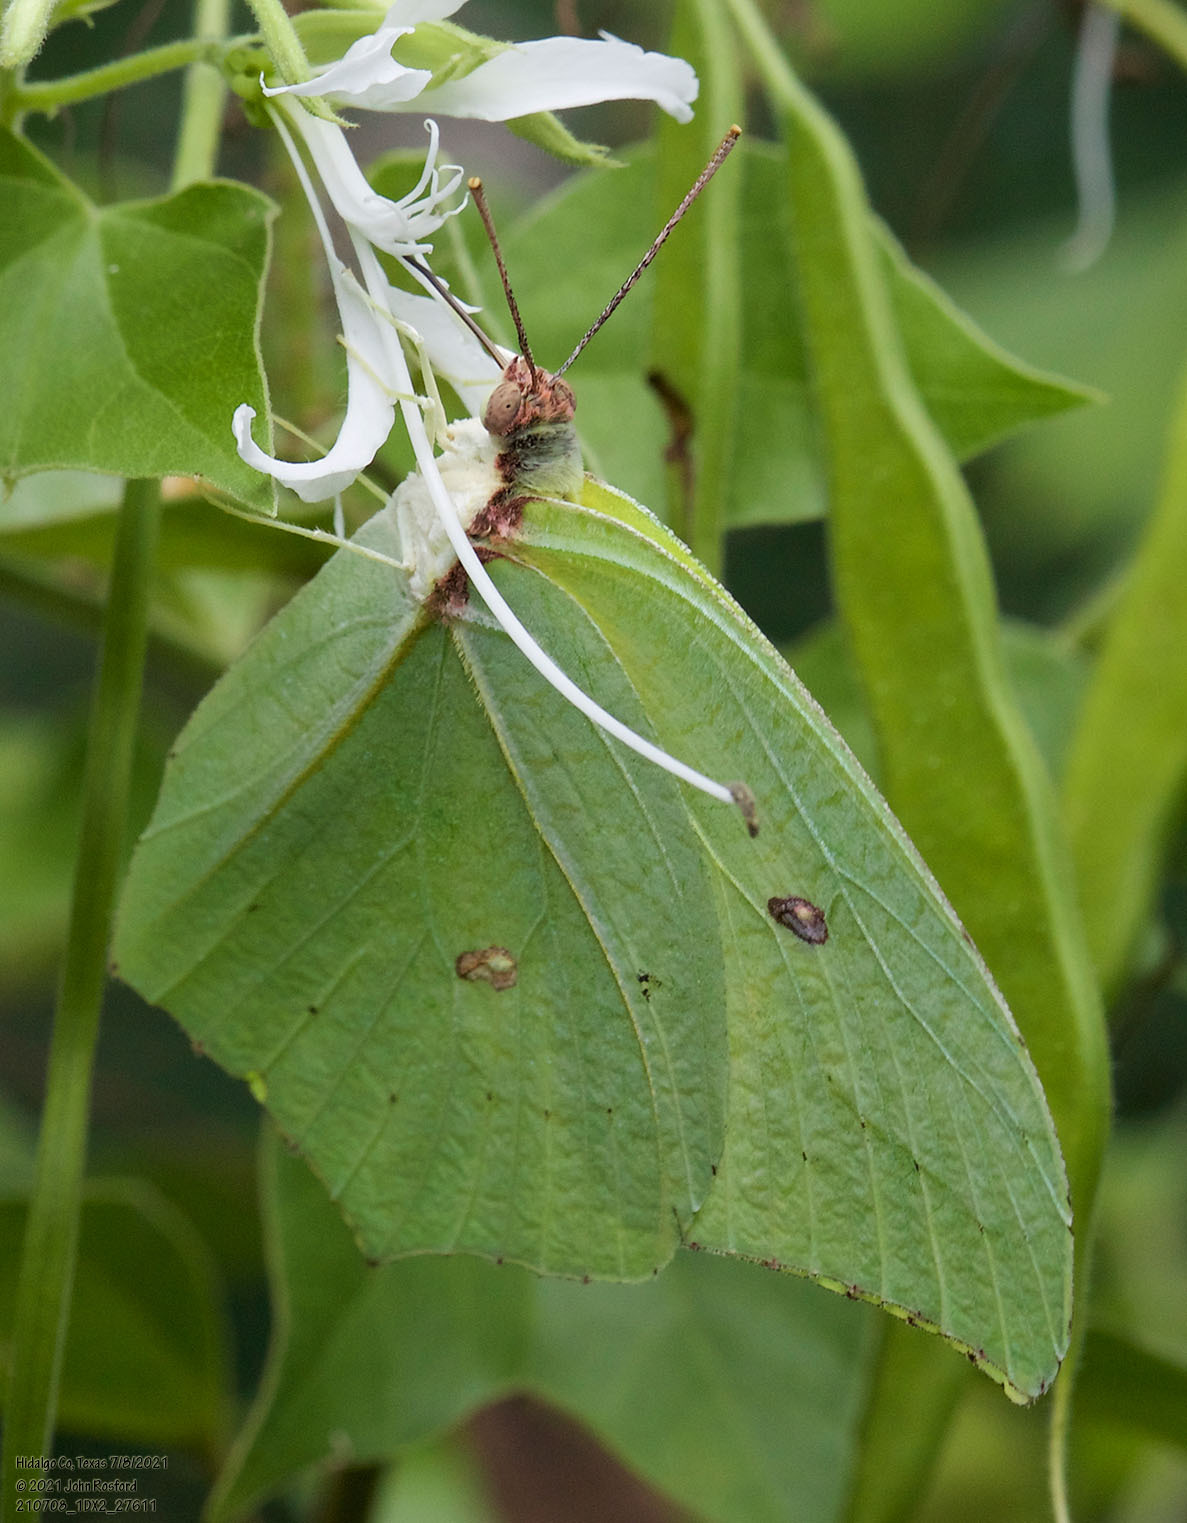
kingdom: Animalia
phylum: Arthropoda
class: Insecta
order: Lepidoptera
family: Pieridae
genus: Anteos
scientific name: Anteos maerula
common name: Angled sulphur
